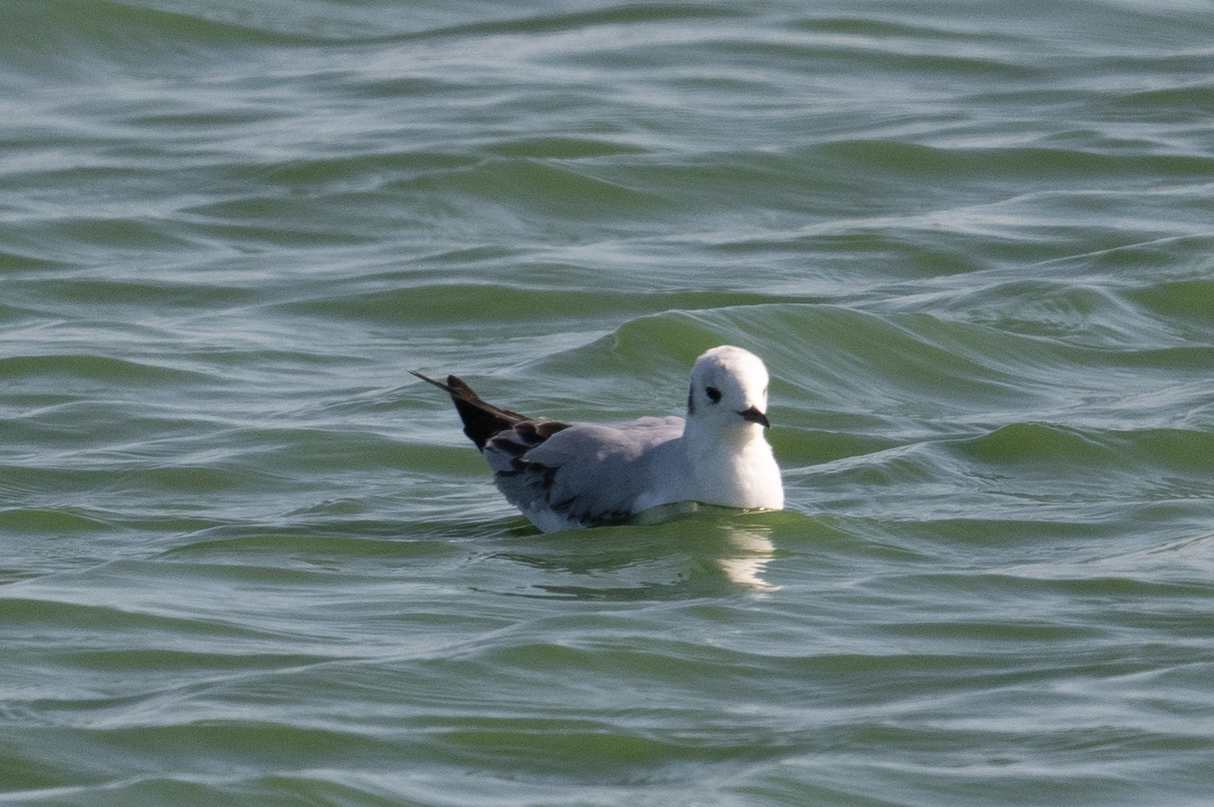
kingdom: Animalia
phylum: Chordata
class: Aves
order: Charadriiformes
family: Laridae
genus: Chroicocephalus
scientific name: Chroicocephalus philadelphia
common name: Bonaparte's gull
